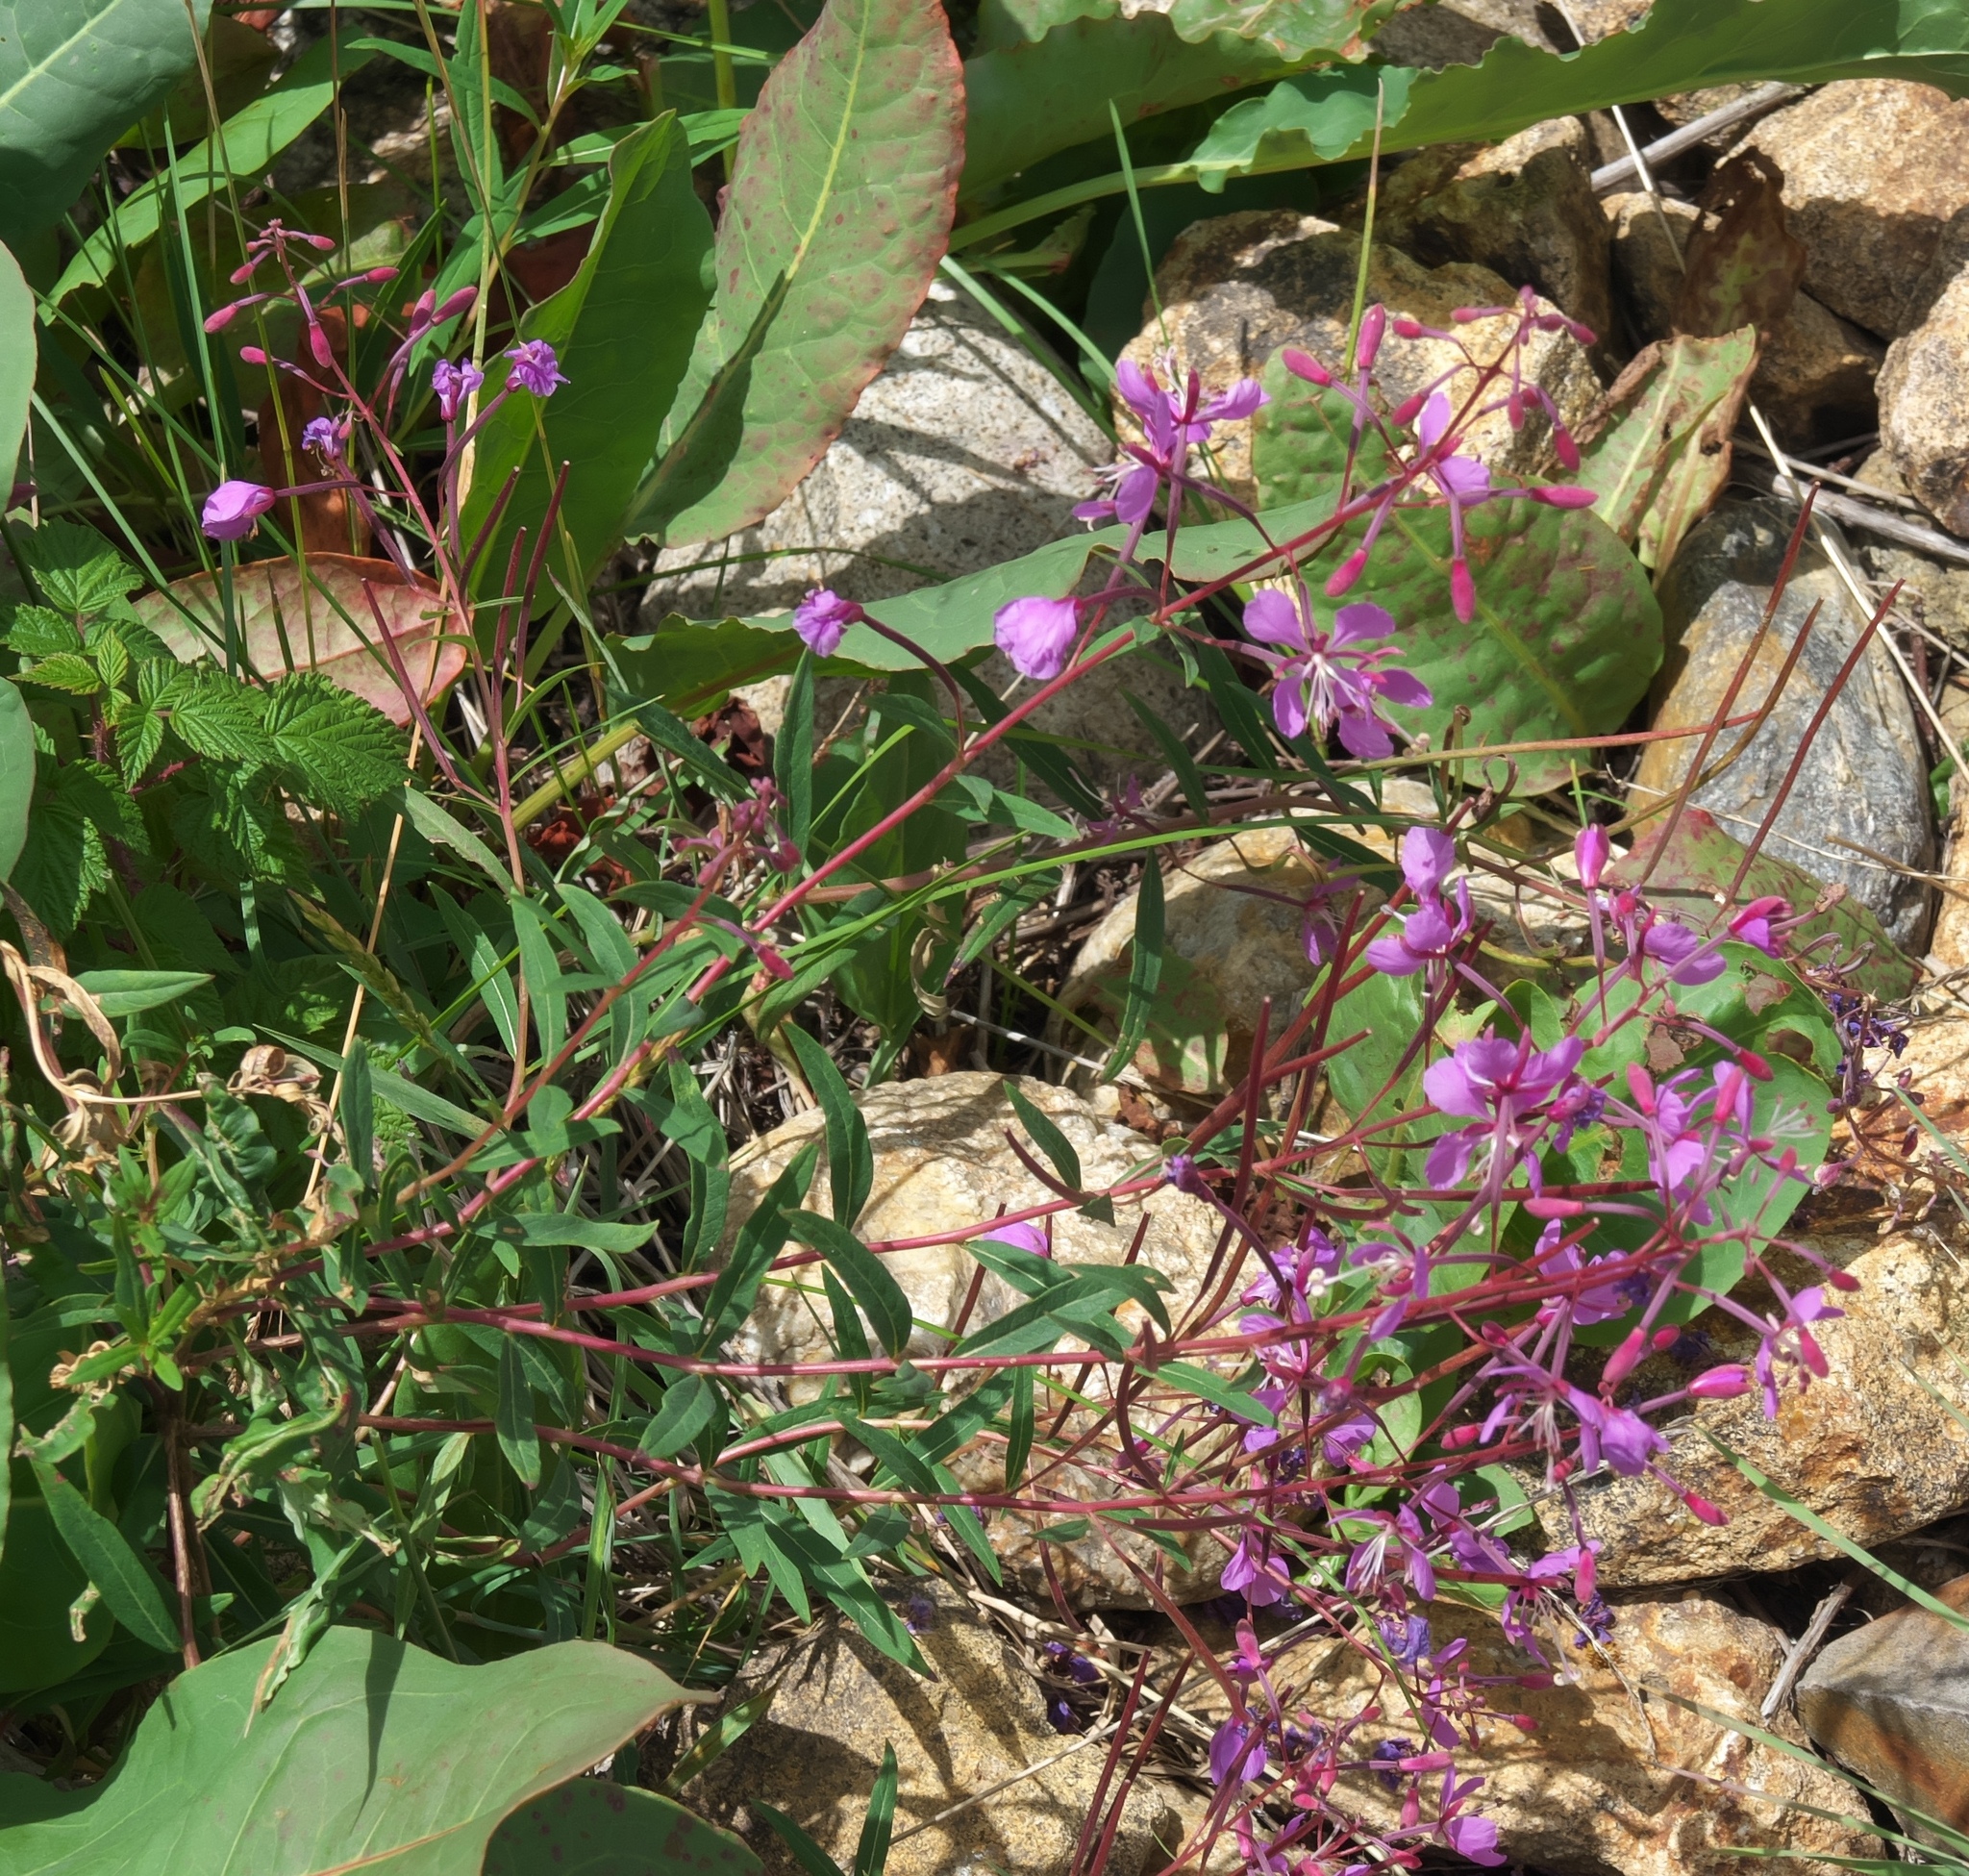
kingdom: Plantae
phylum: Tracheophyta
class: Magnoliopsida
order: Myrtales
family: Onagraceae
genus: Chamaenerion
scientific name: Chamaenerion angustifolium
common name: Fireweed
